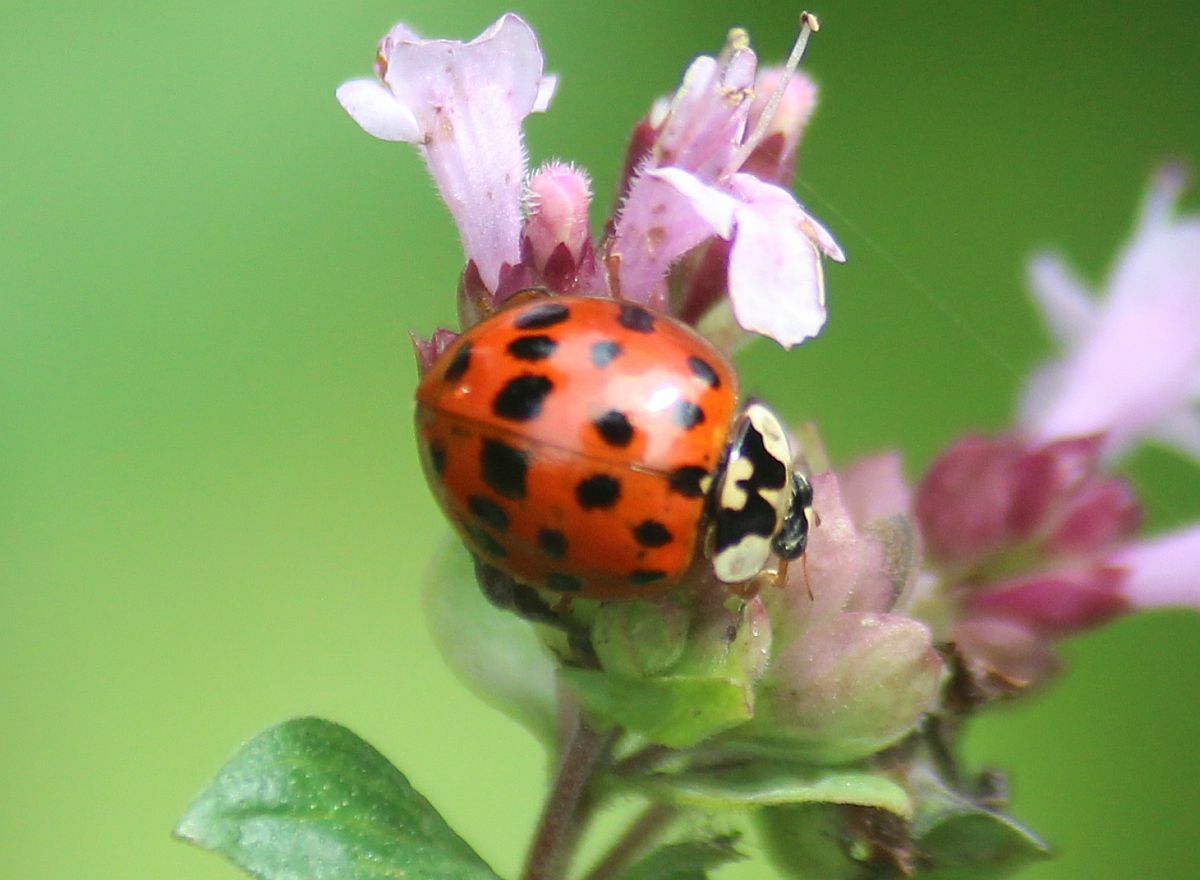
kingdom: Animalia
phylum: Arthropoda
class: Insecta
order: Coleoptera
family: Coccinellidae
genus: Harmonia
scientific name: Harmonia axyridis
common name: Harlequin ladybird
